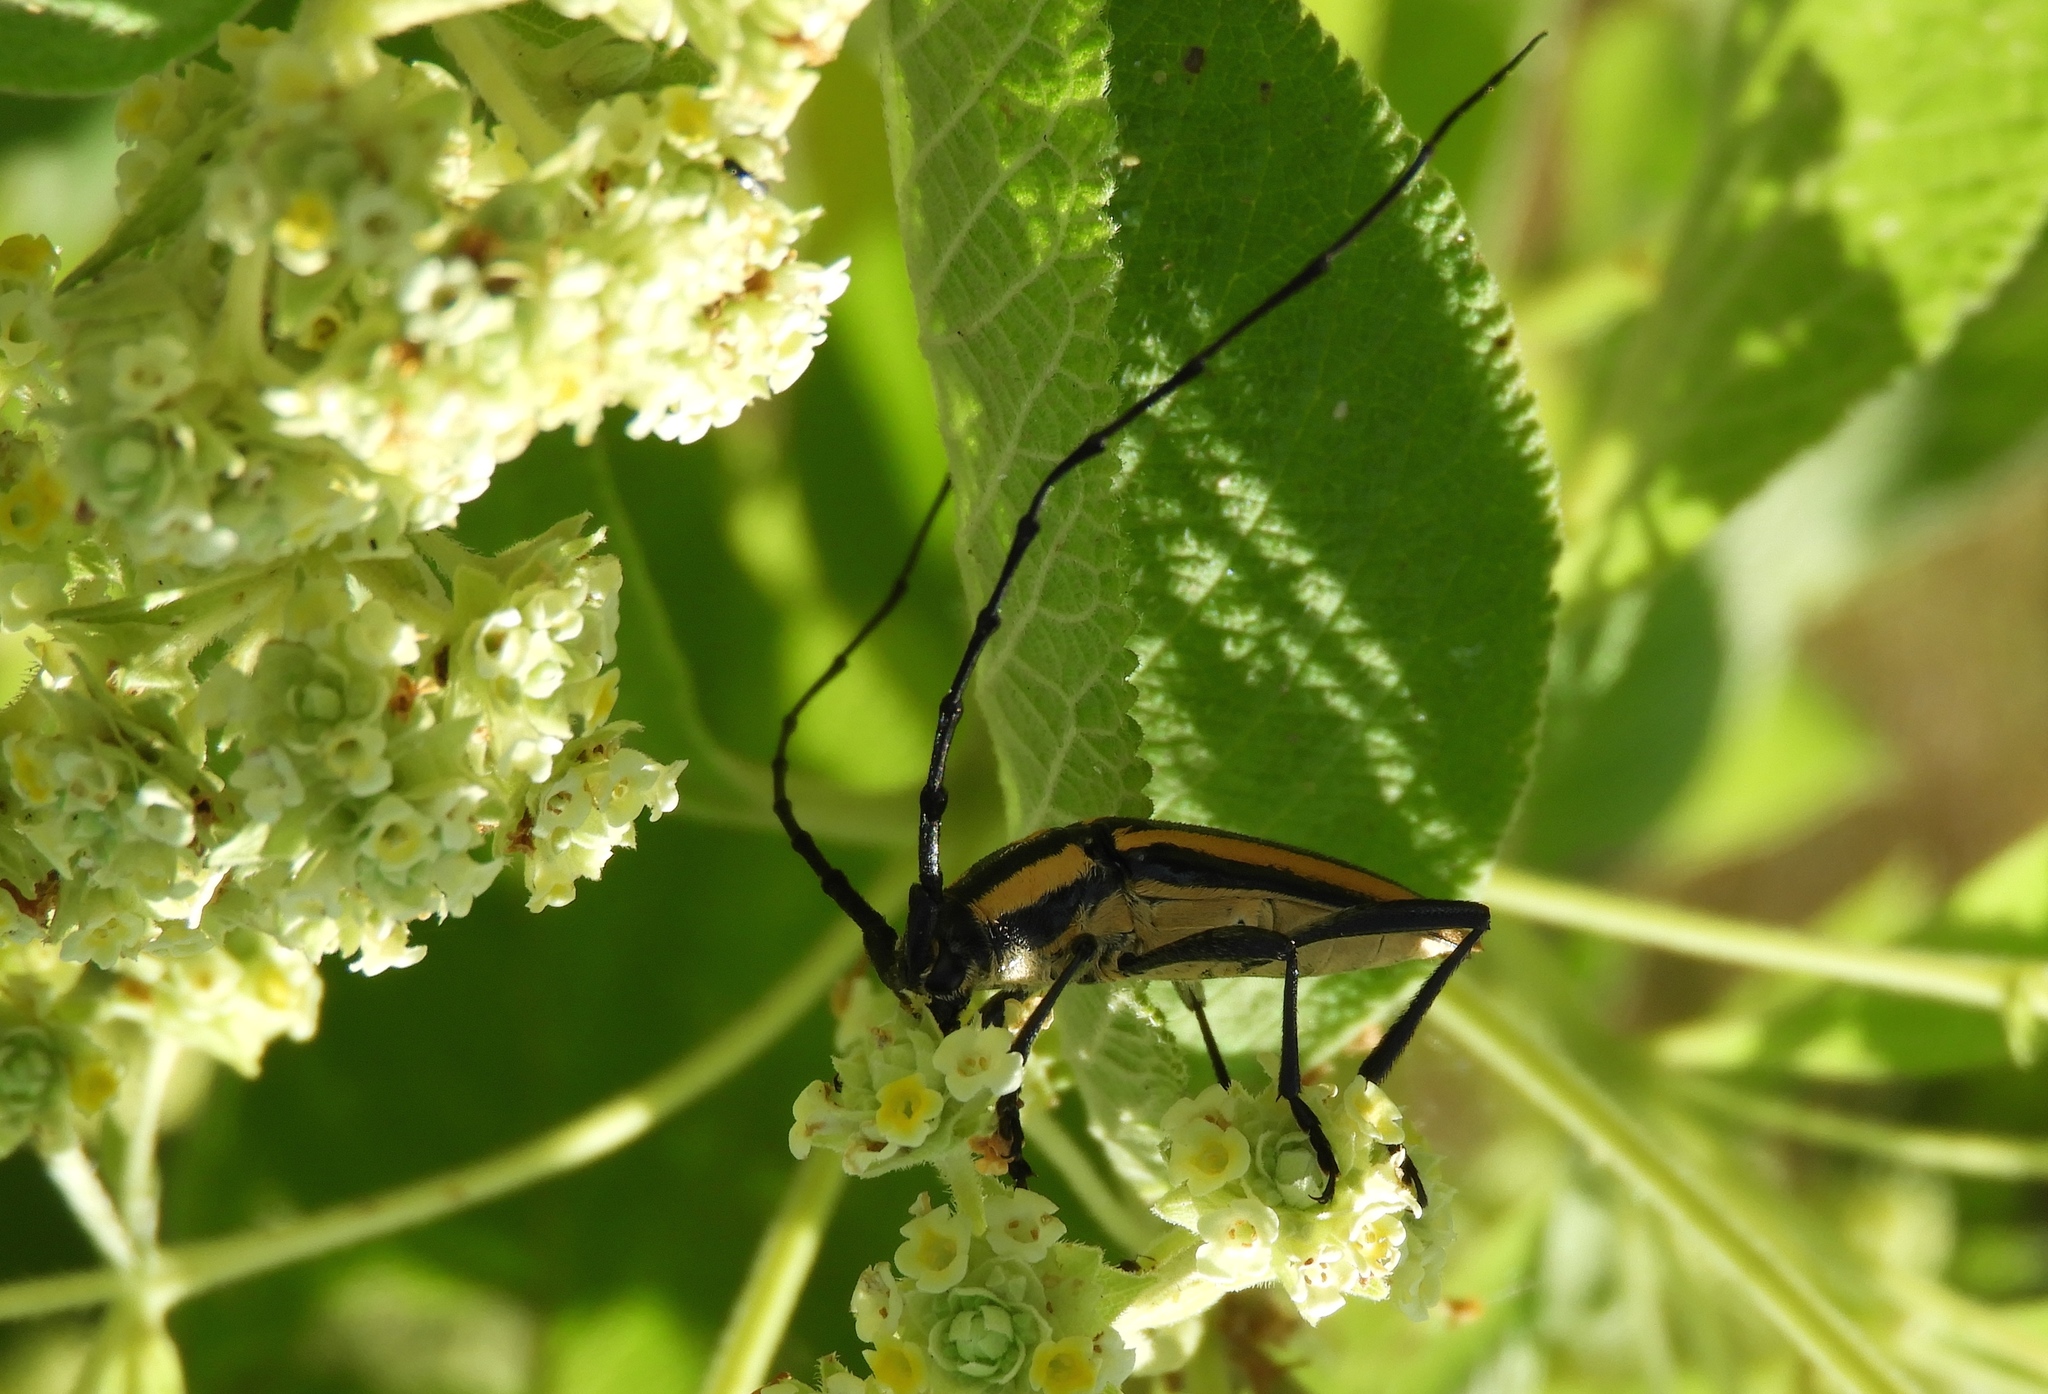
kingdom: Animalia
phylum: Arthropoda
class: Insecta
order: Coleoptera
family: Cerambycidae
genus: Sphaenothecus
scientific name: Sphaenothecus trilineatus
